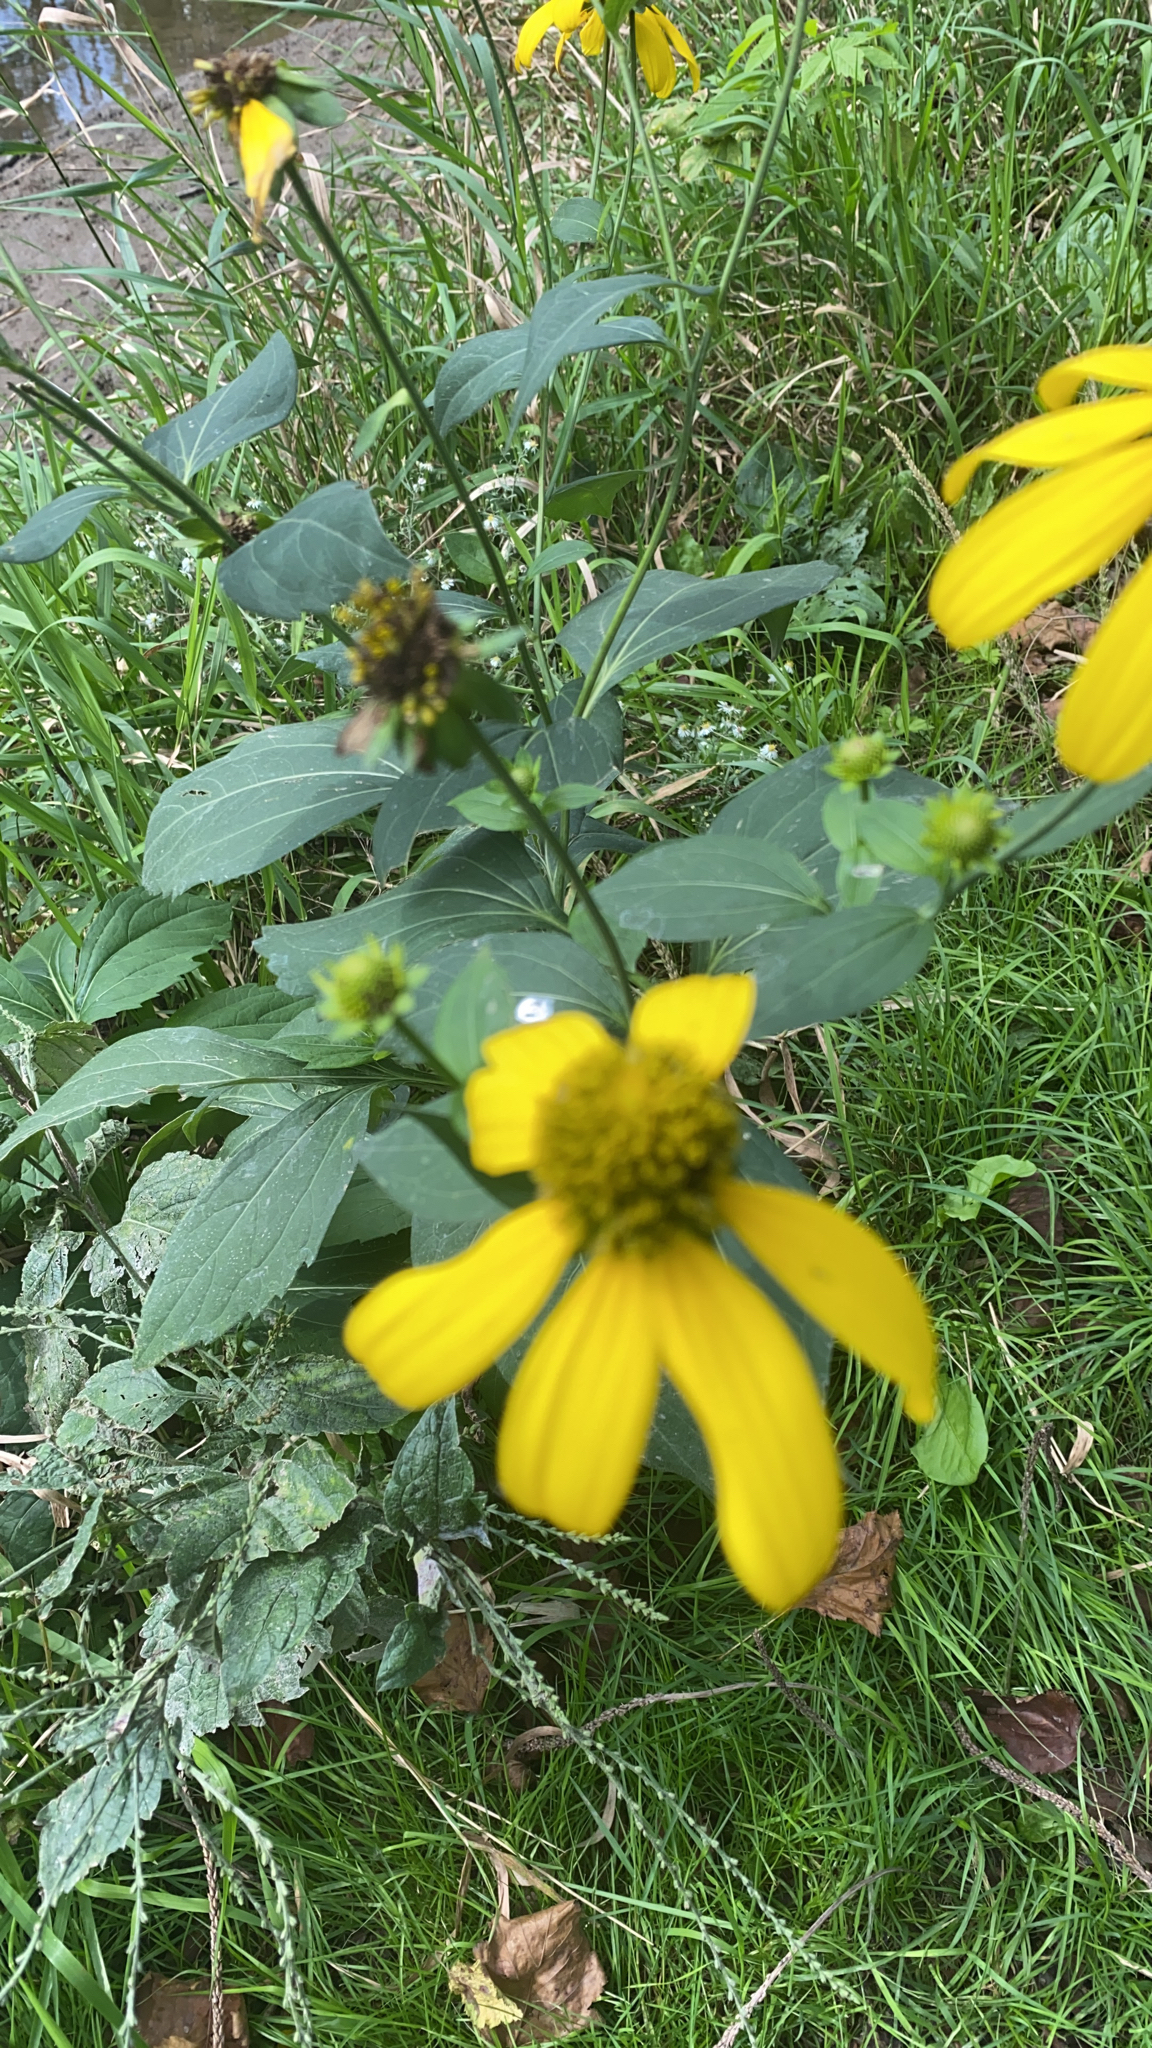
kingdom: Plantae
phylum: Tracheophyta
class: Magnoliopsida
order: Asterales
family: Asteraceae
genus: Rudbeckia
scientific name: Rudbeckia laciniata
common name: Coneflower
